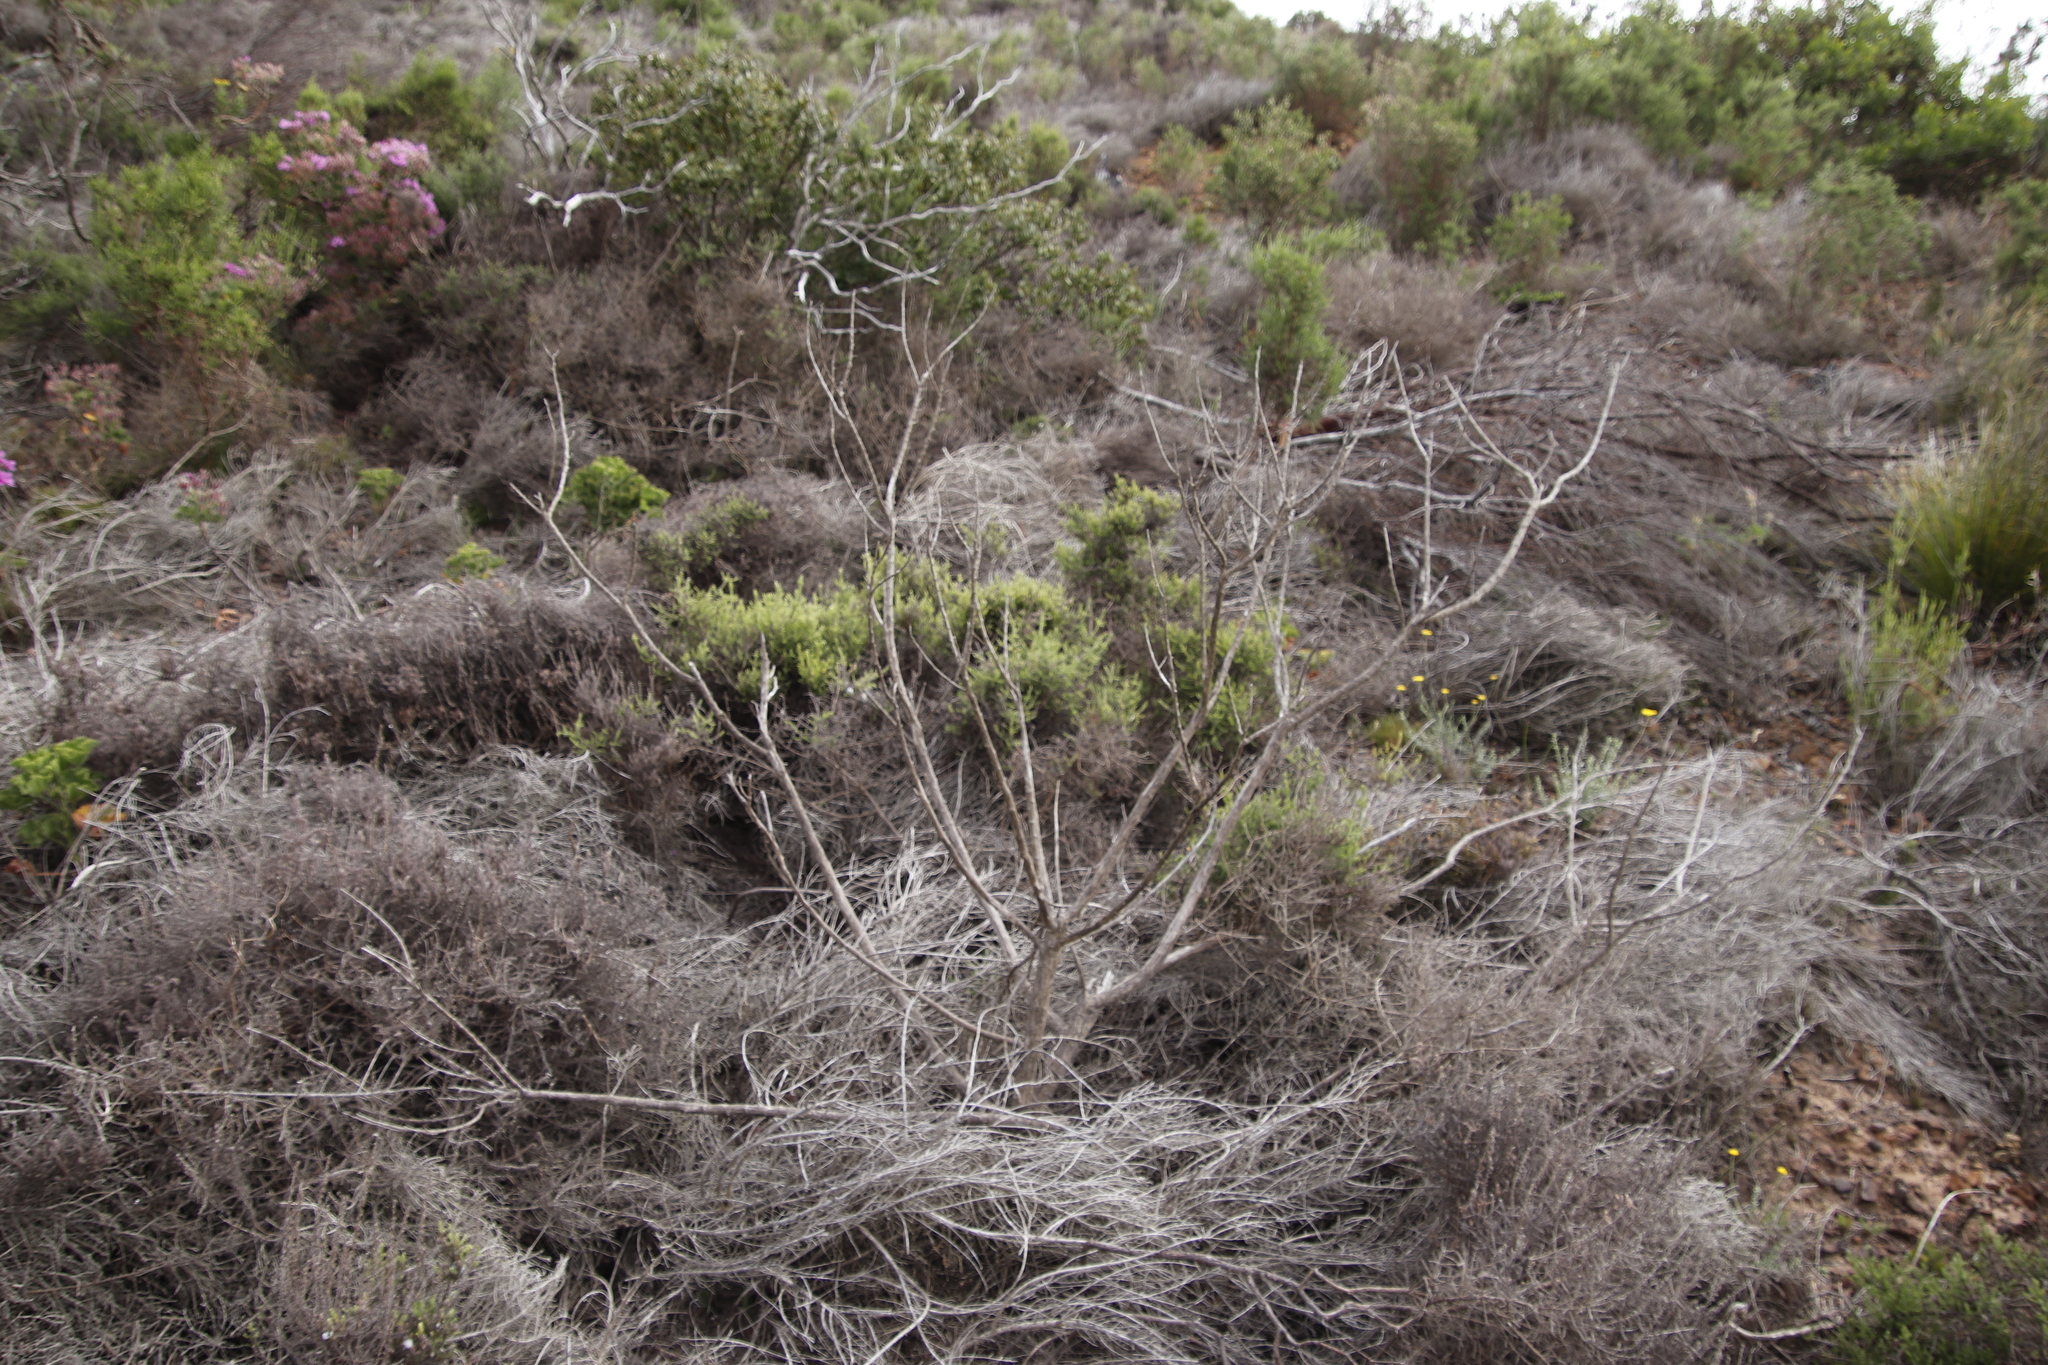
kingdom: Plantae
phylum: Tracheophyta
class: Magnoliopsida
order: Asterales
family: Asteraceae
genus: Seriphium
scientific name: Seriphium cinereum
